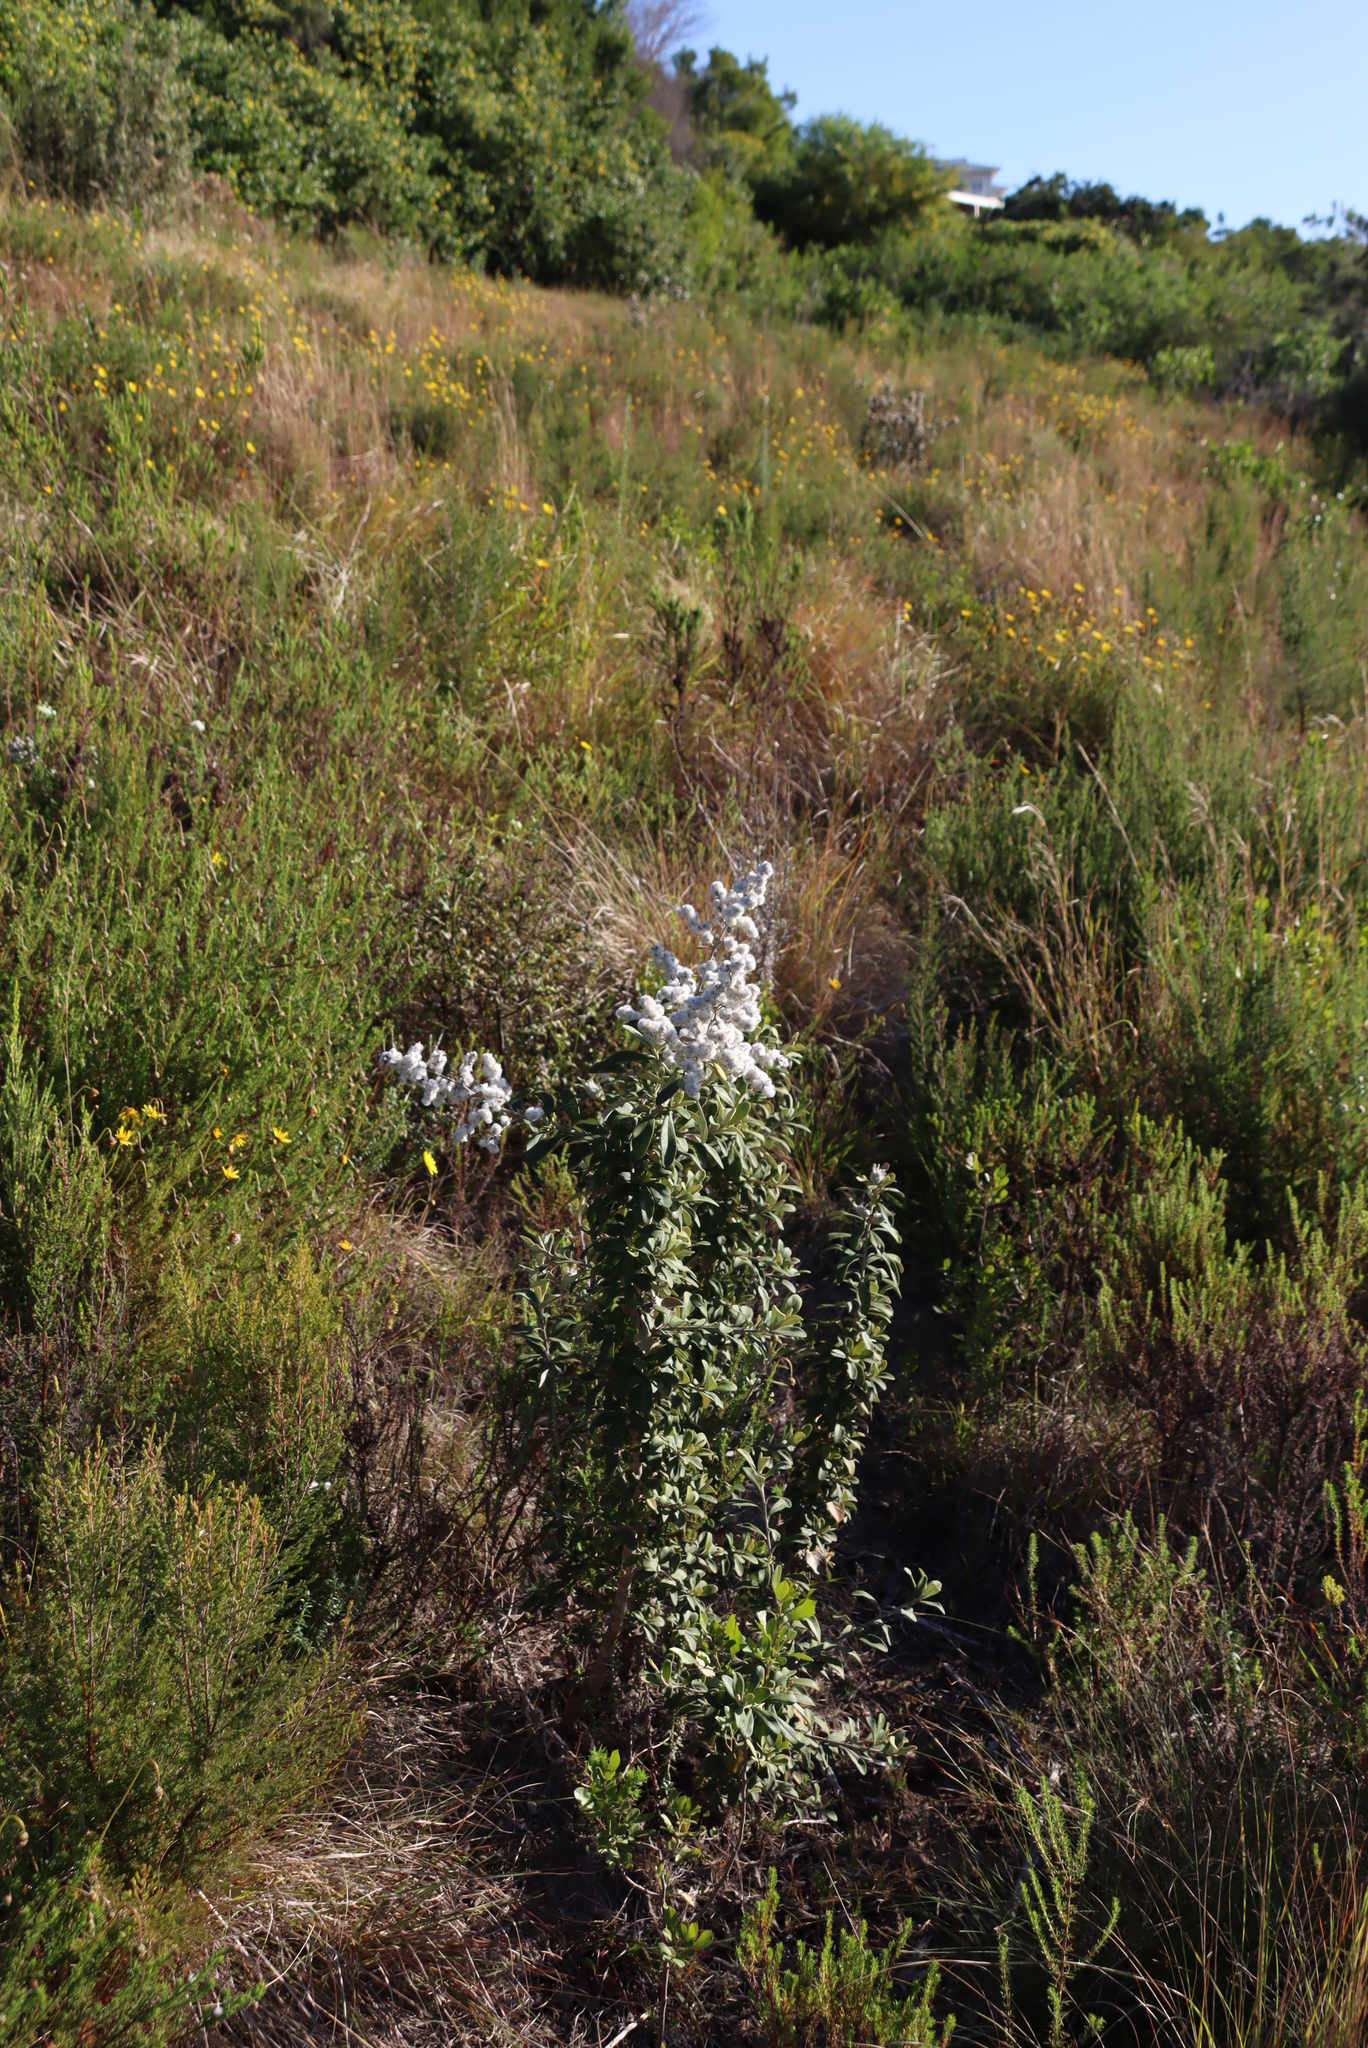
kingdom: Plantae
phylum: Tracheophyta
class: Magnoliopsida
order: Asterales
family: Asteraceae
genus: Tarchonanthus
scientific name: Tarchonanthus littoralis
